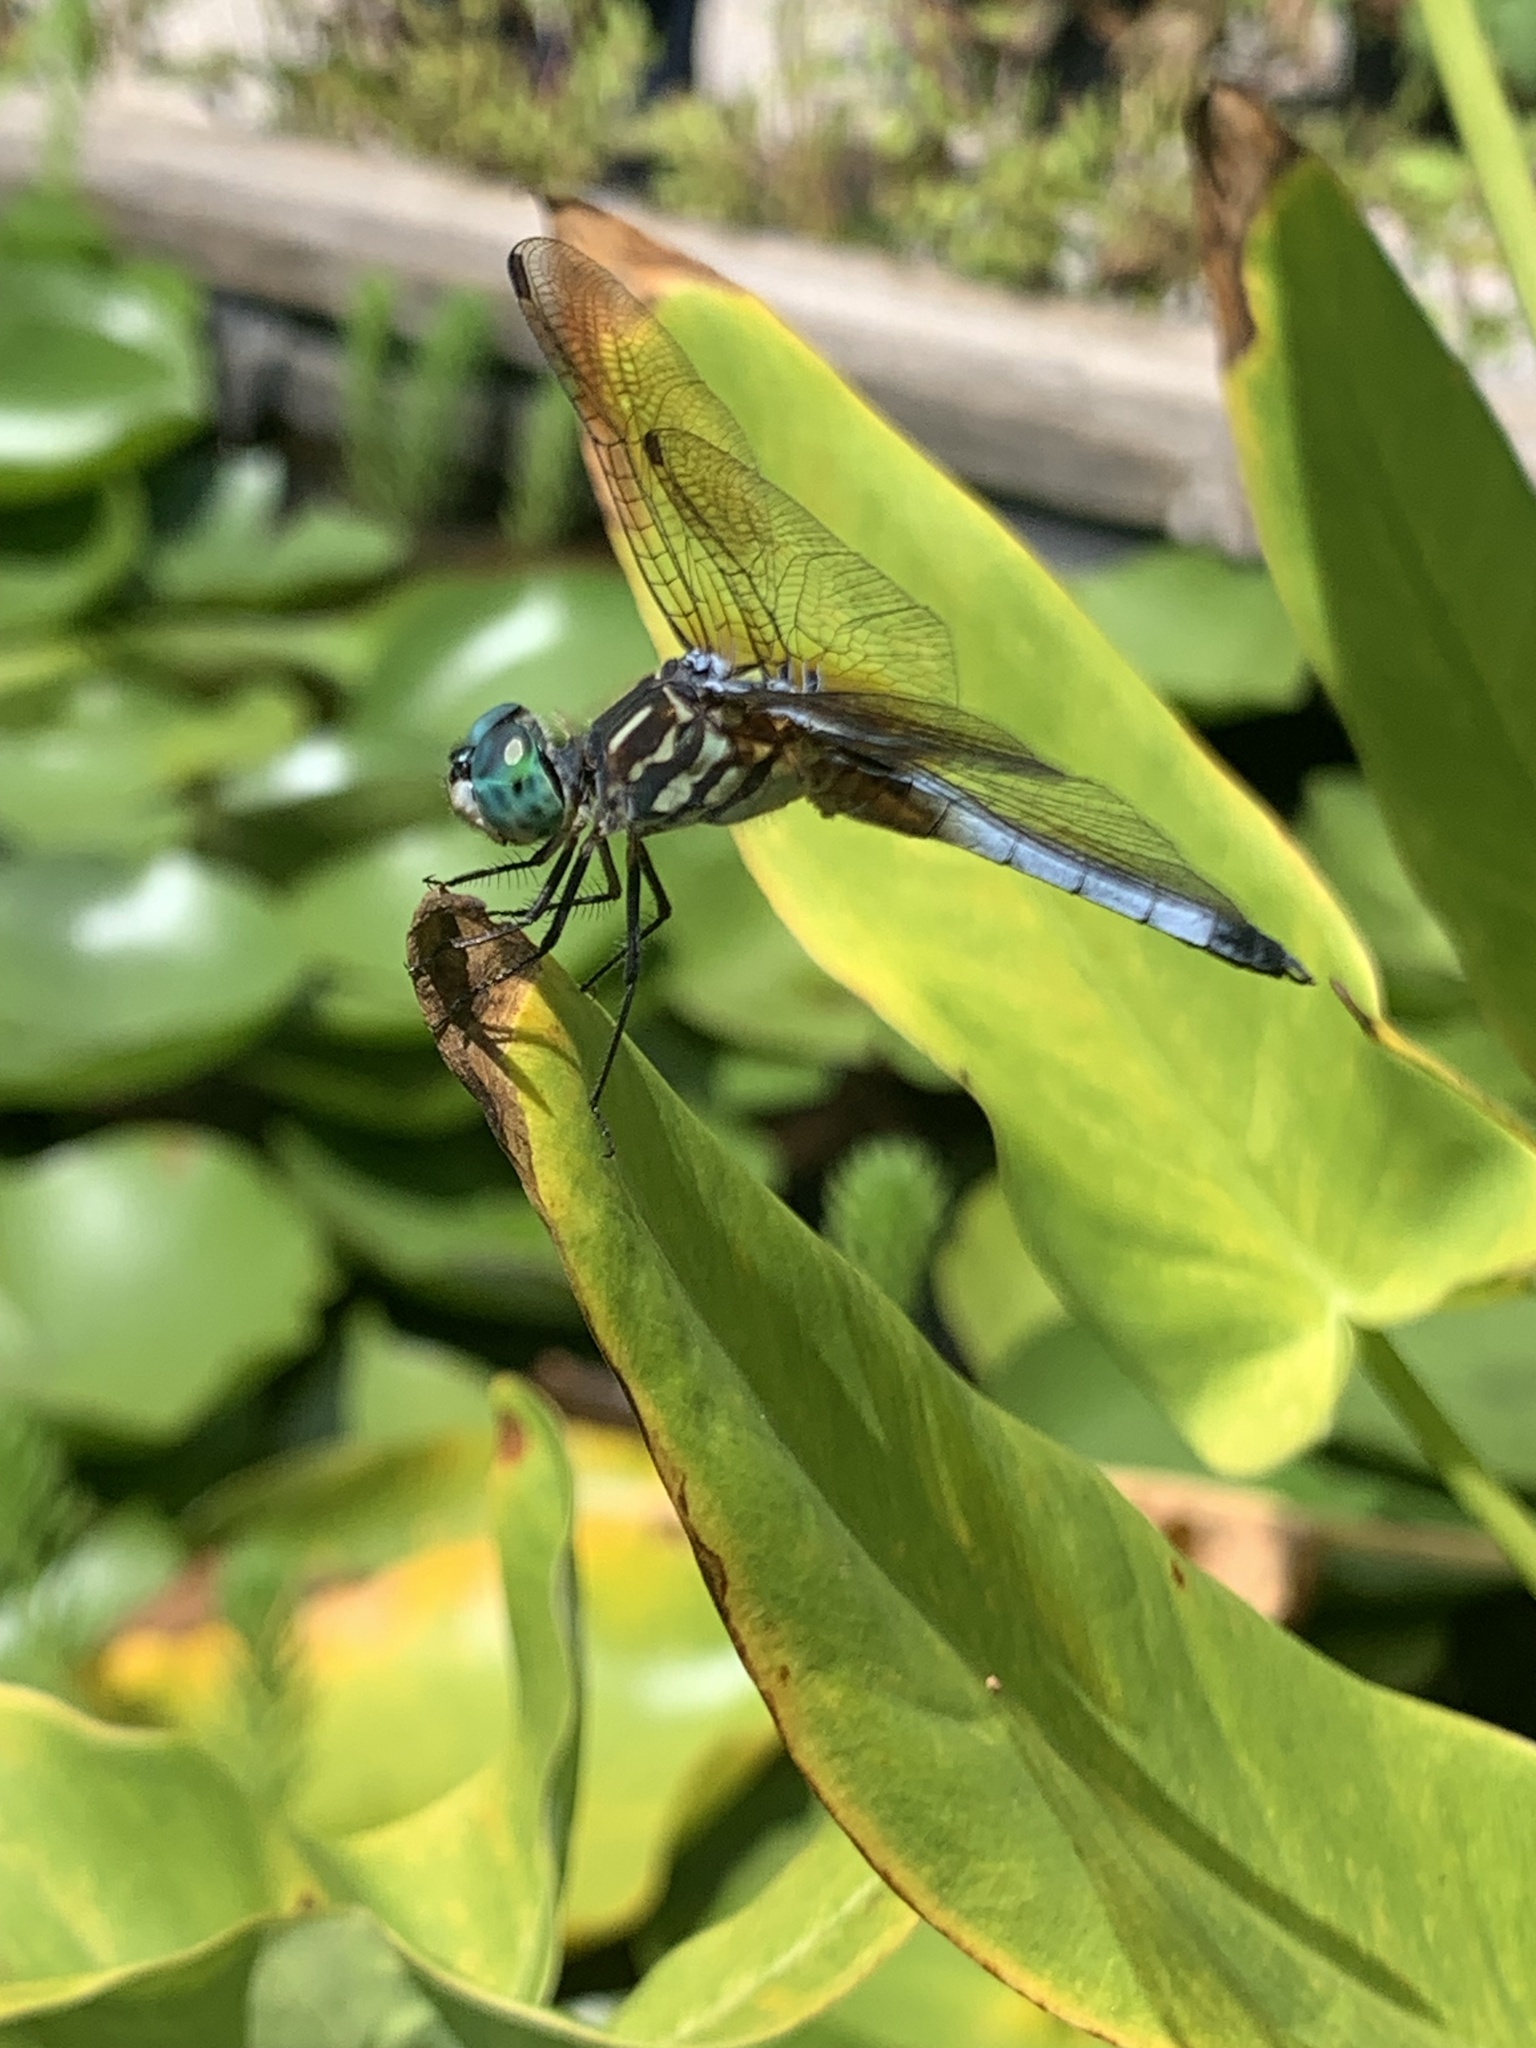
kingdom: Animalia
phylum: Arthropoda
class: Insecta
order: Odonata
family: Libellulidae
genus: Pachydiplax
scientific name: Pachydiplax longipennis
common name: Blue dasher
